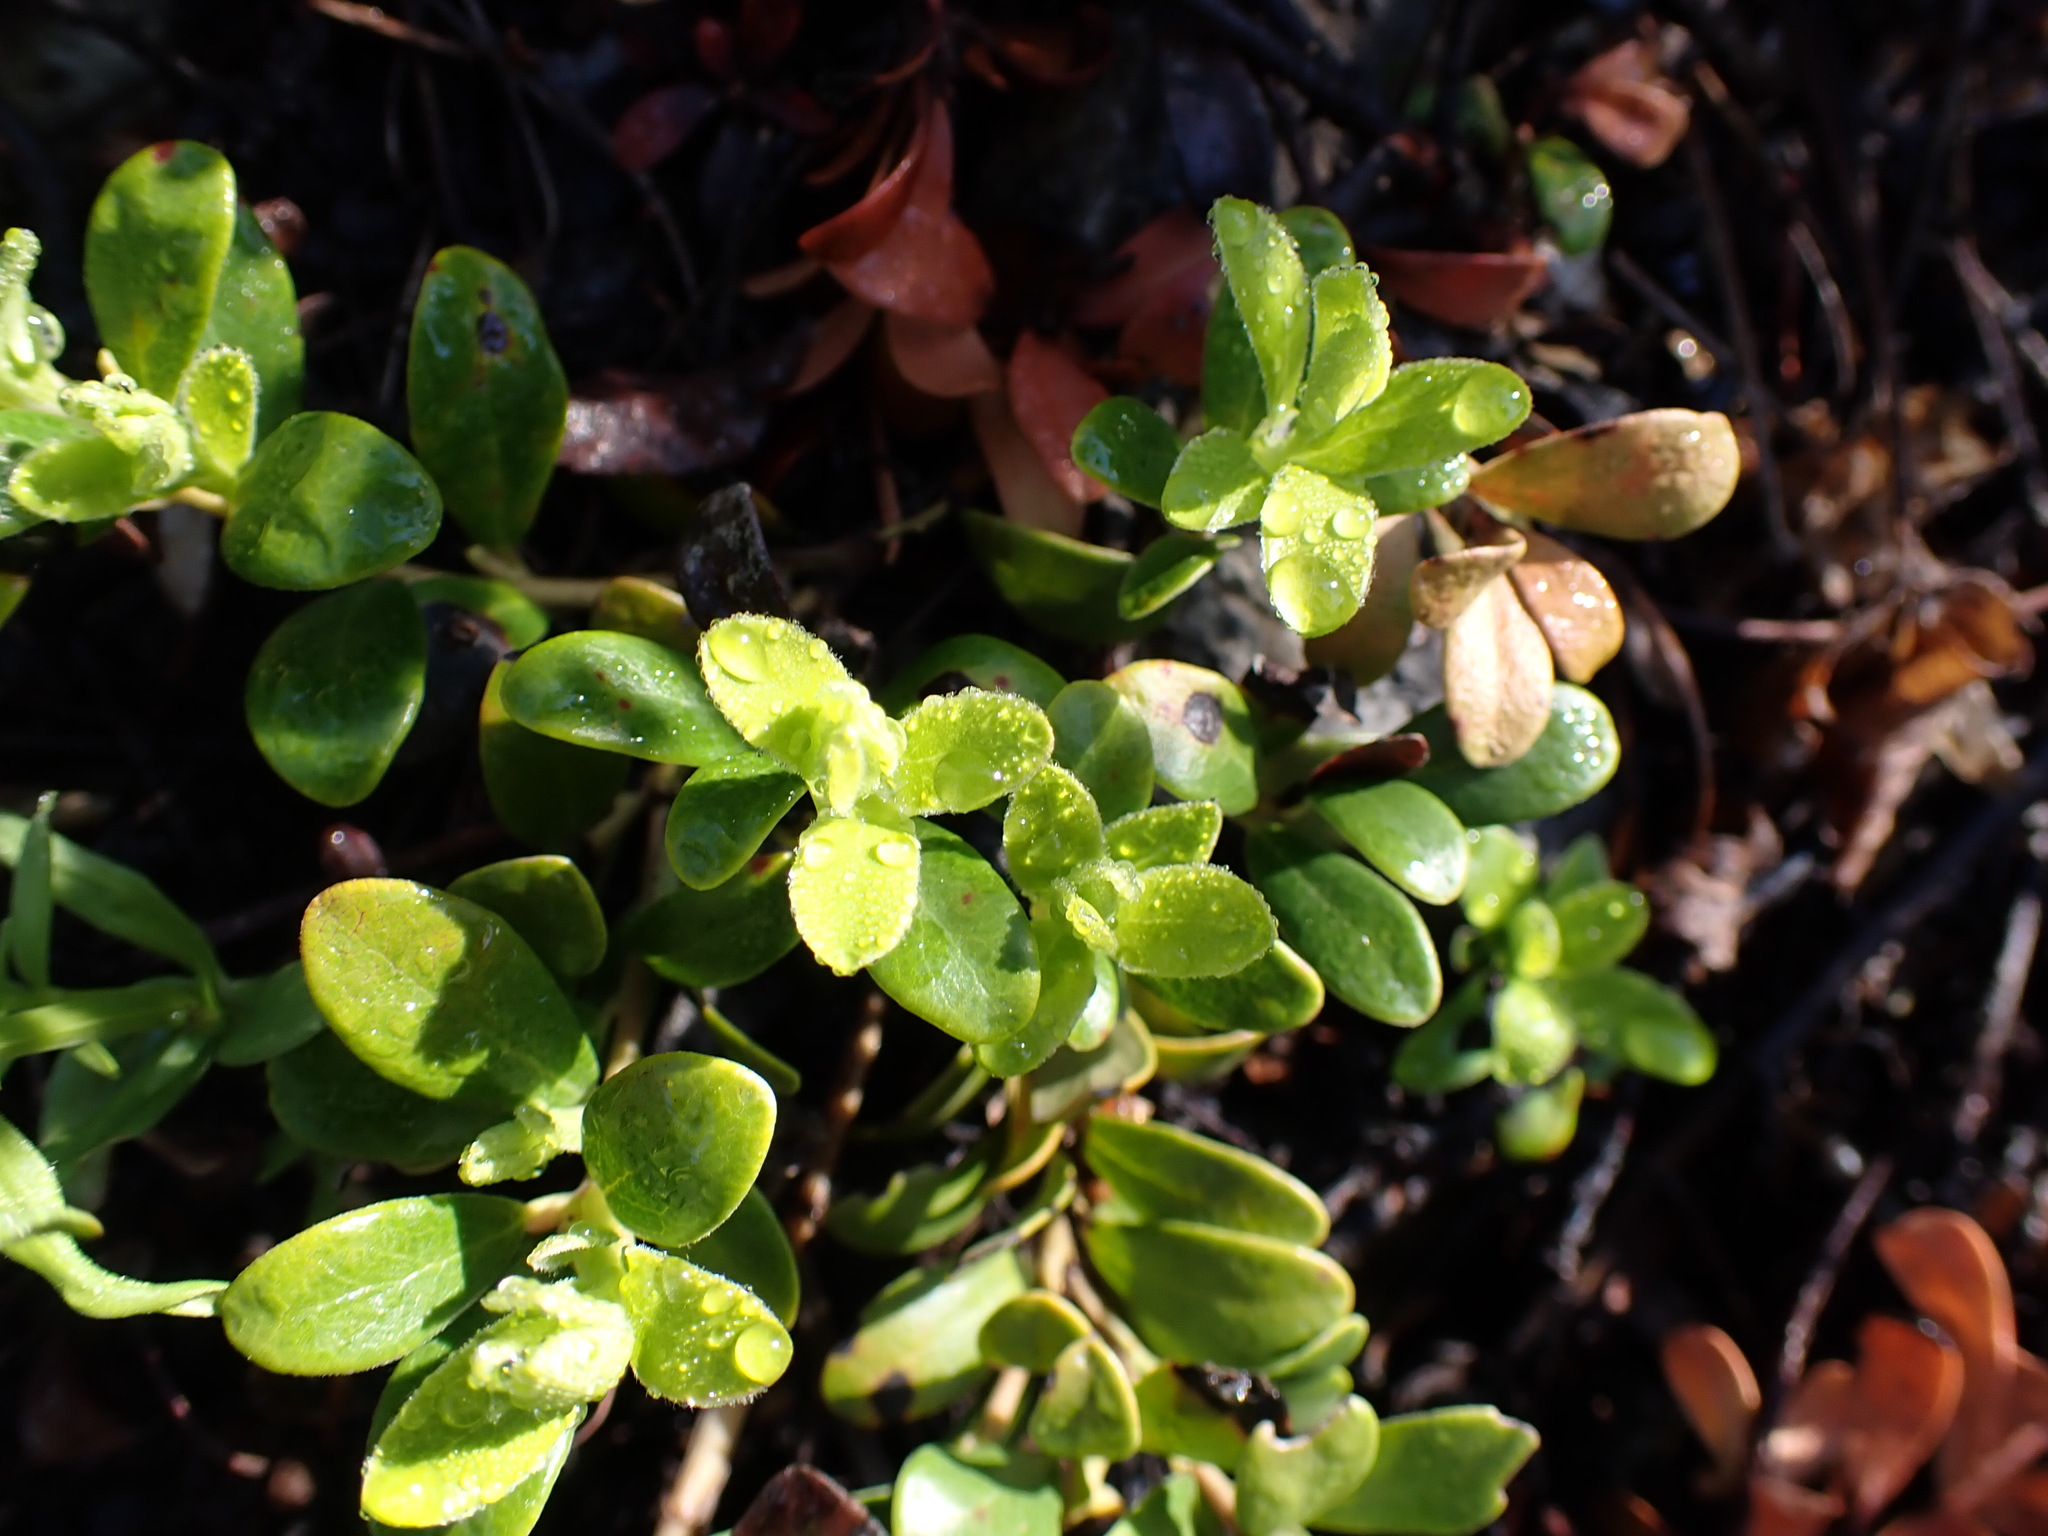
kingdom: Plantae
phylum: Tracheophyta
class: Magnoliopsida
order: Ericales
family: Ericaceae
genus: Arctostaphylos
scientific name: Arctostaphylos uva-ursi
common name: Bearberry
